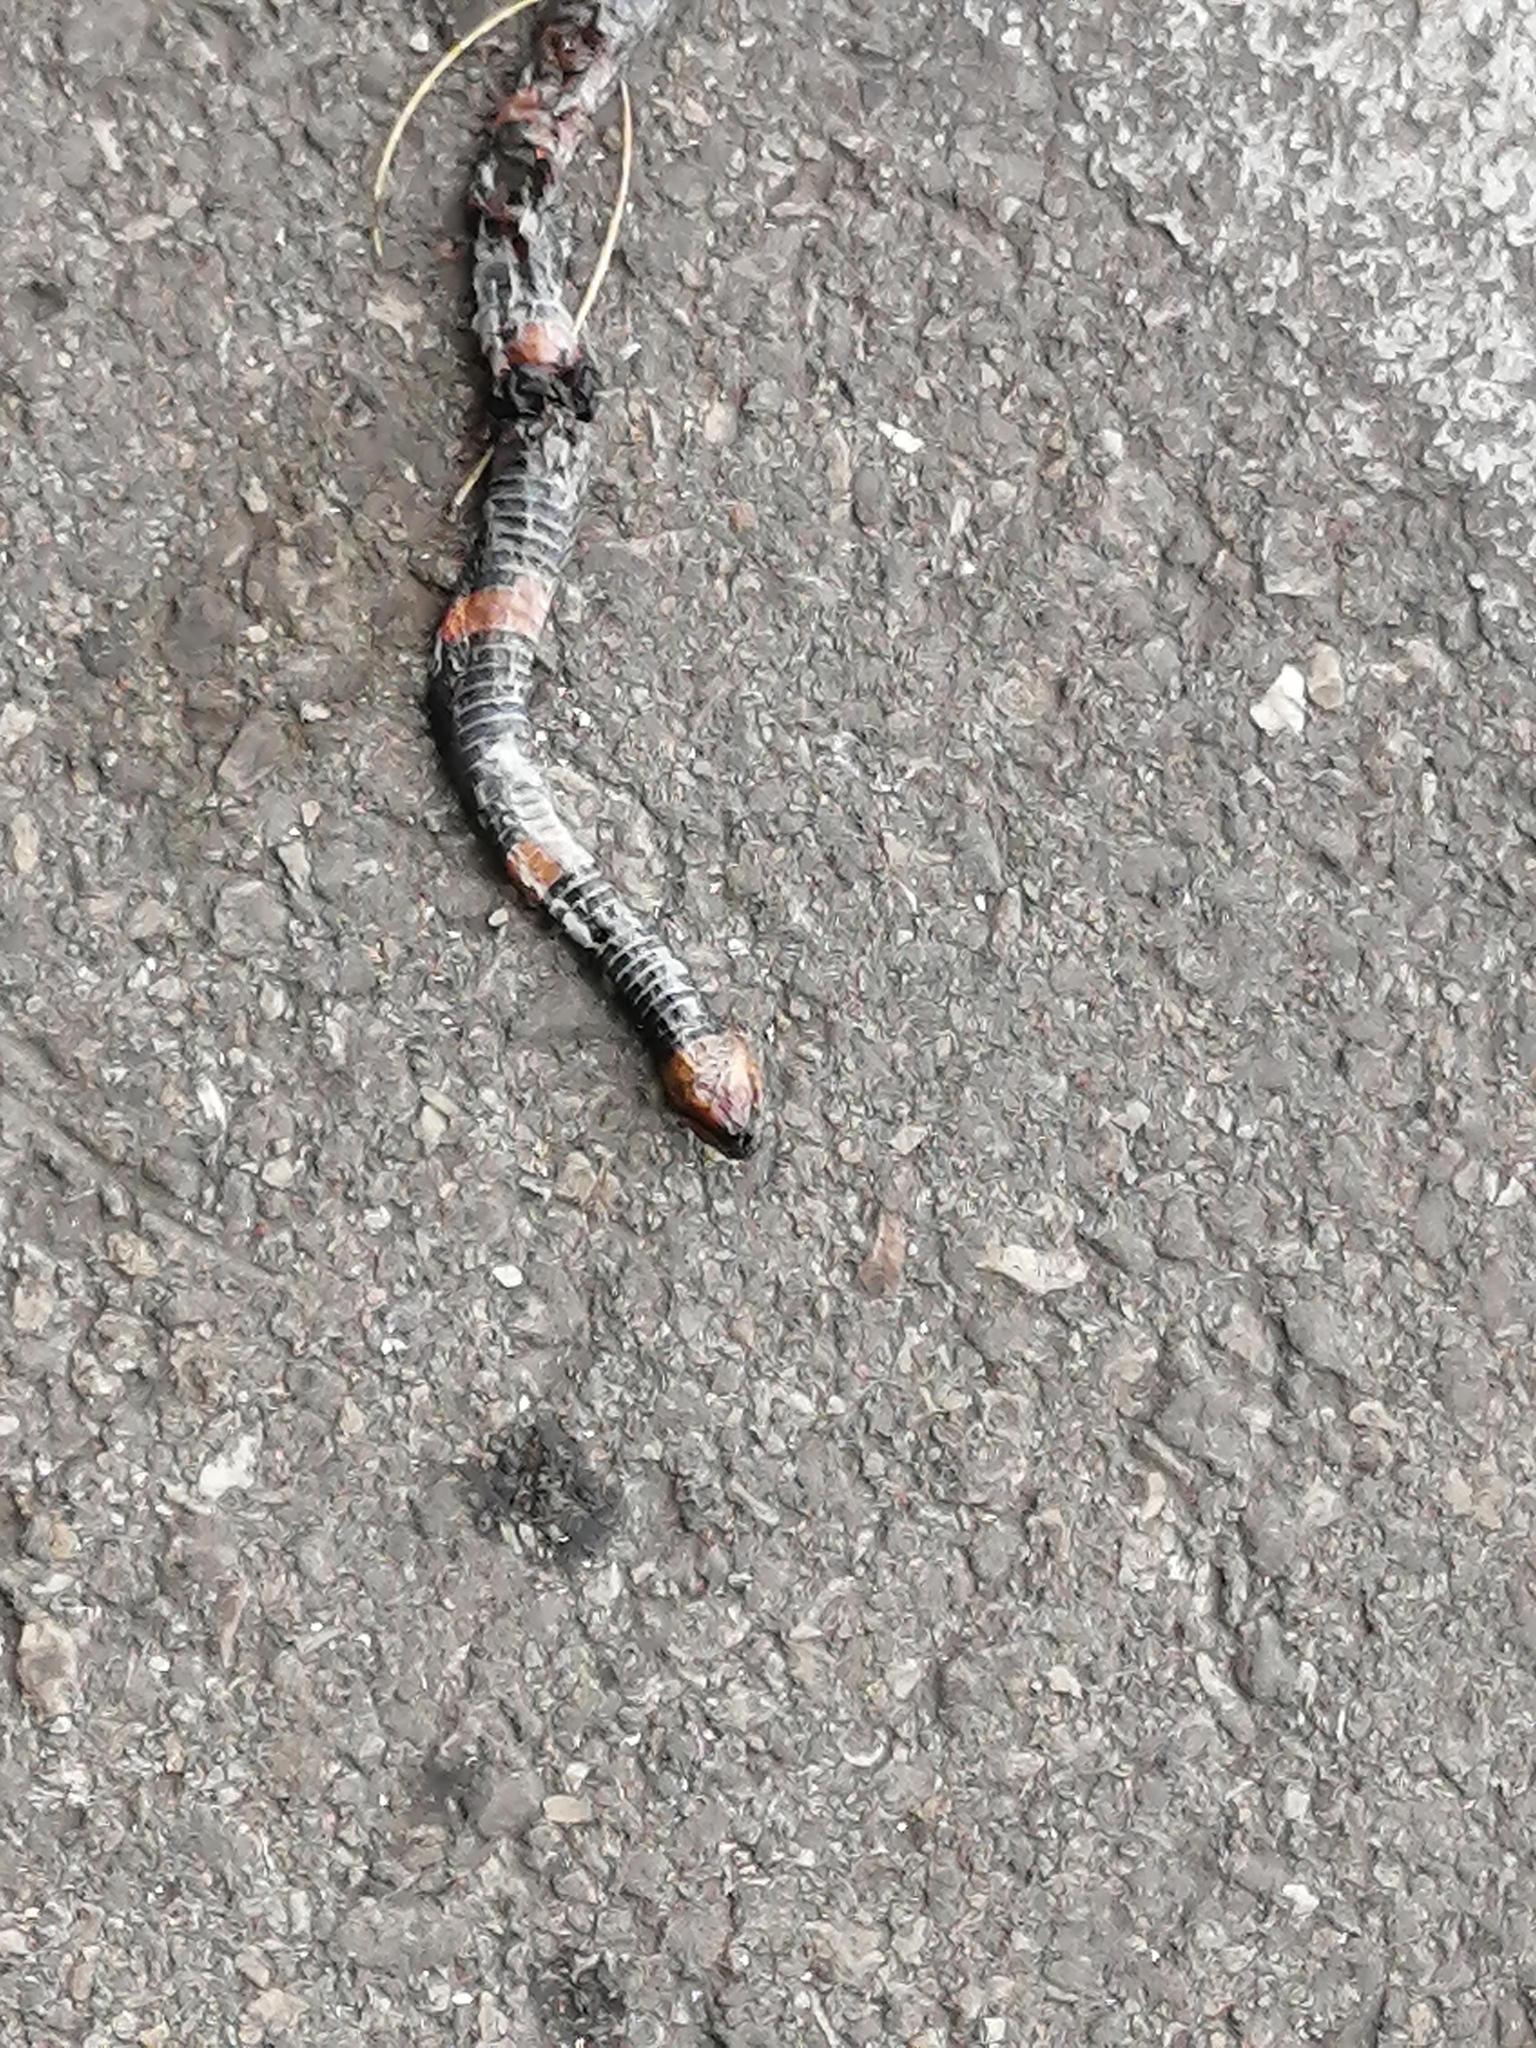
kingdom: Animalia
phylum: Chordata
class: Squamata
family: Colubridae
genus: Geophis
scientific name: Geophis
